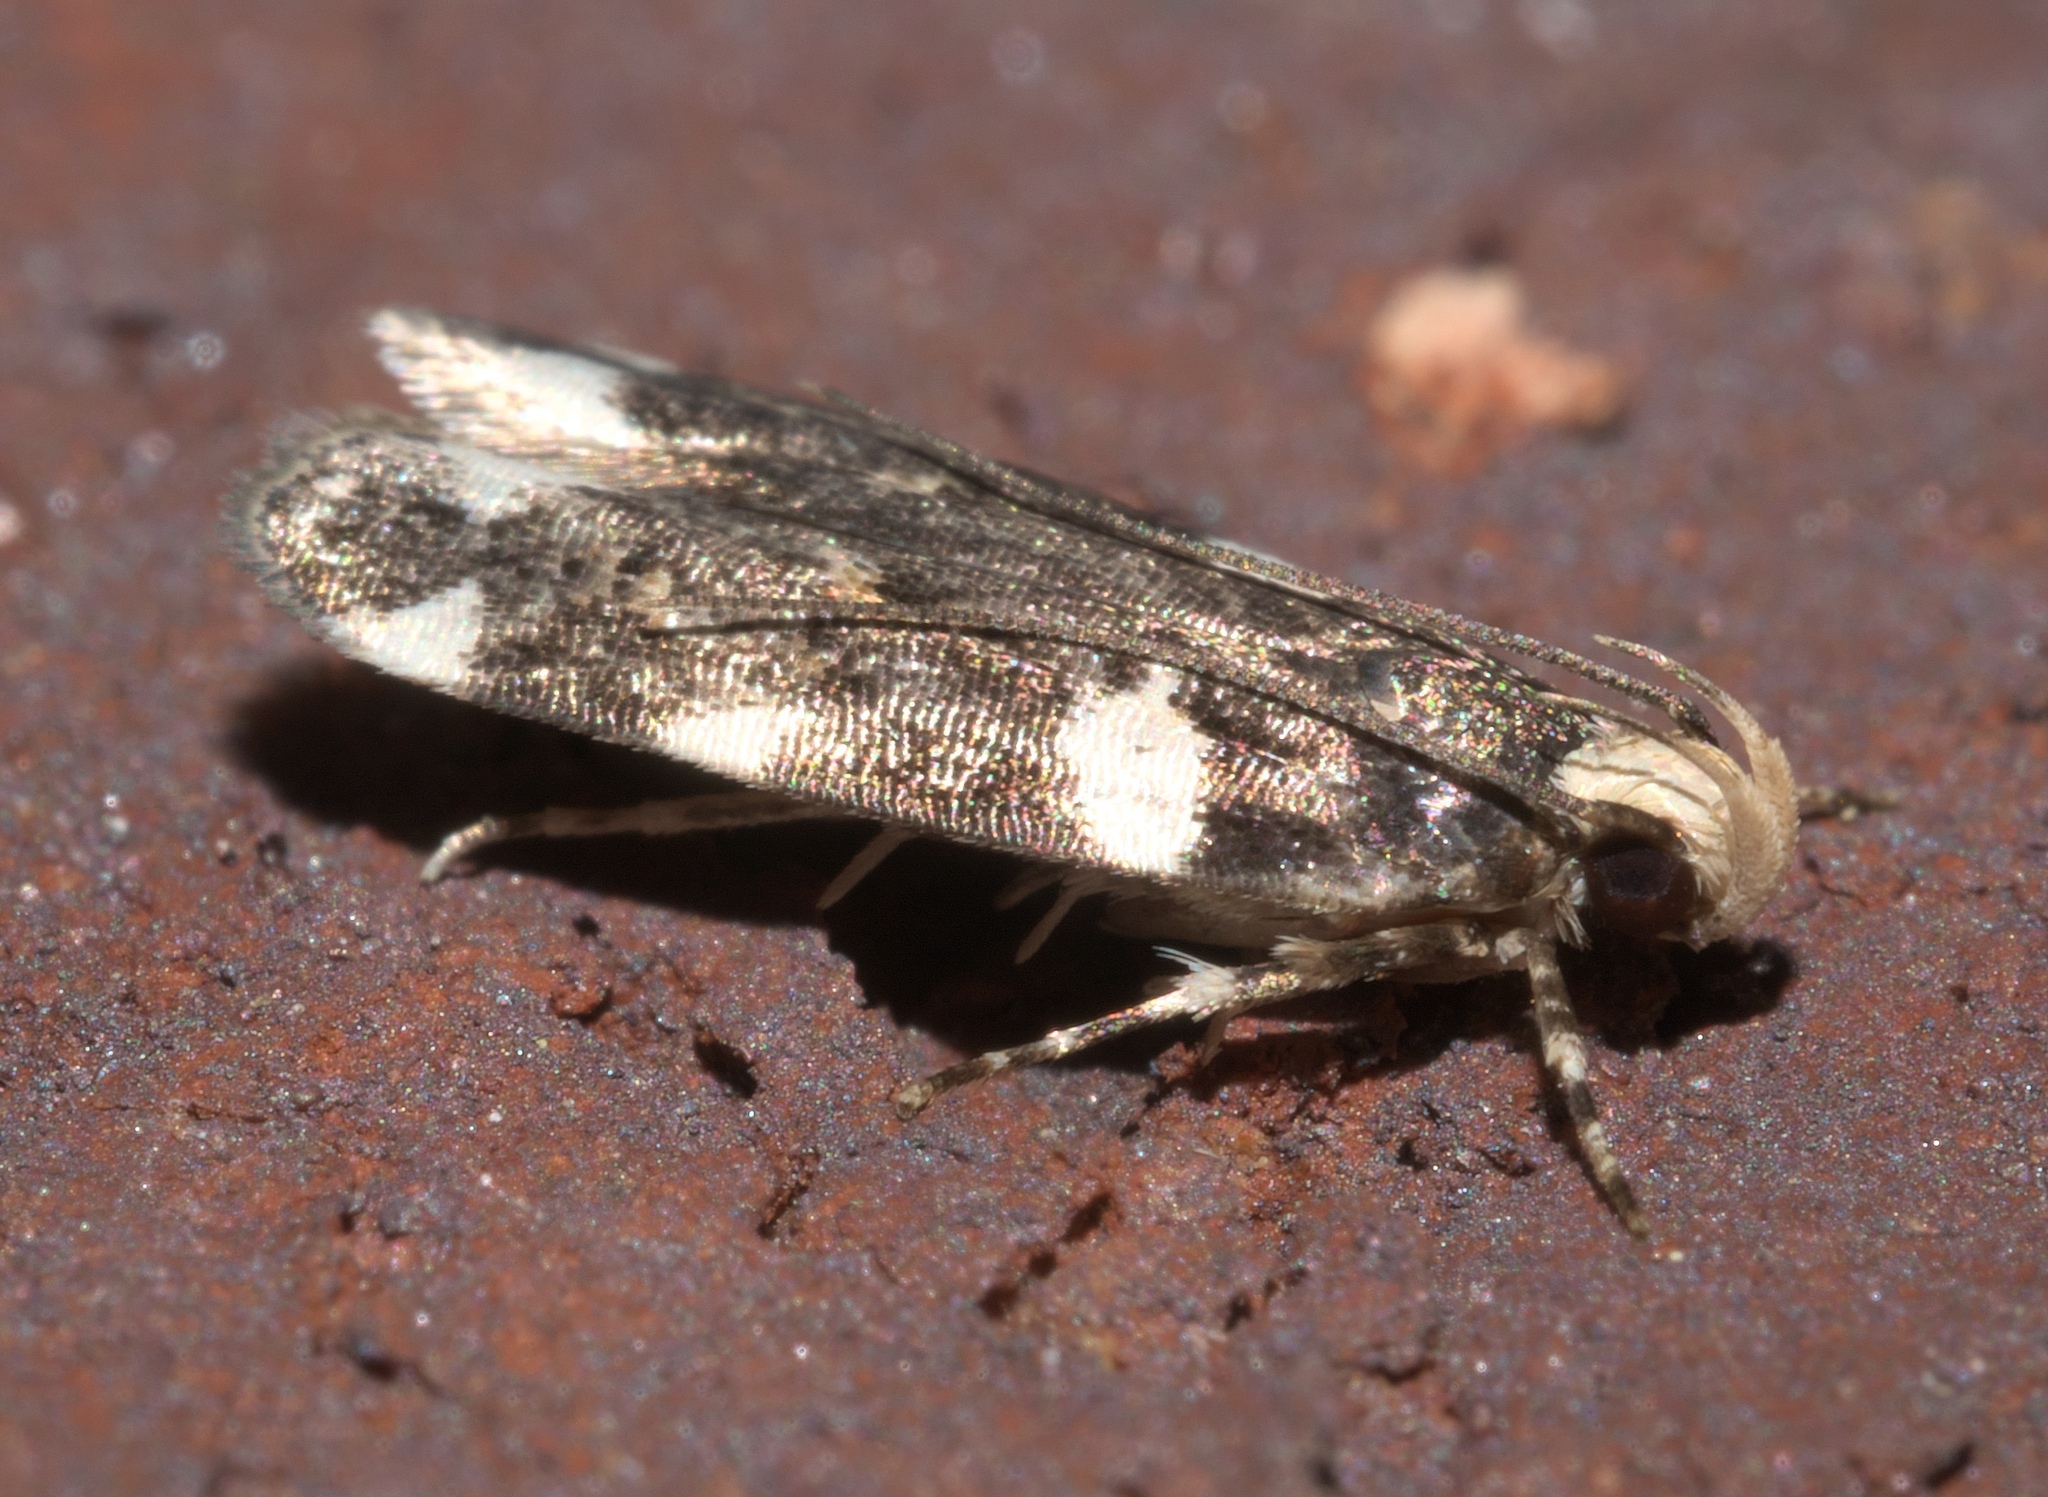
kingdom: Animalia
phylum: Arthropoda
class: Insecta
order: Lepidoptera
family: Gelechiidae
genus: Fascista
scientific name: Fascista cercerisella
